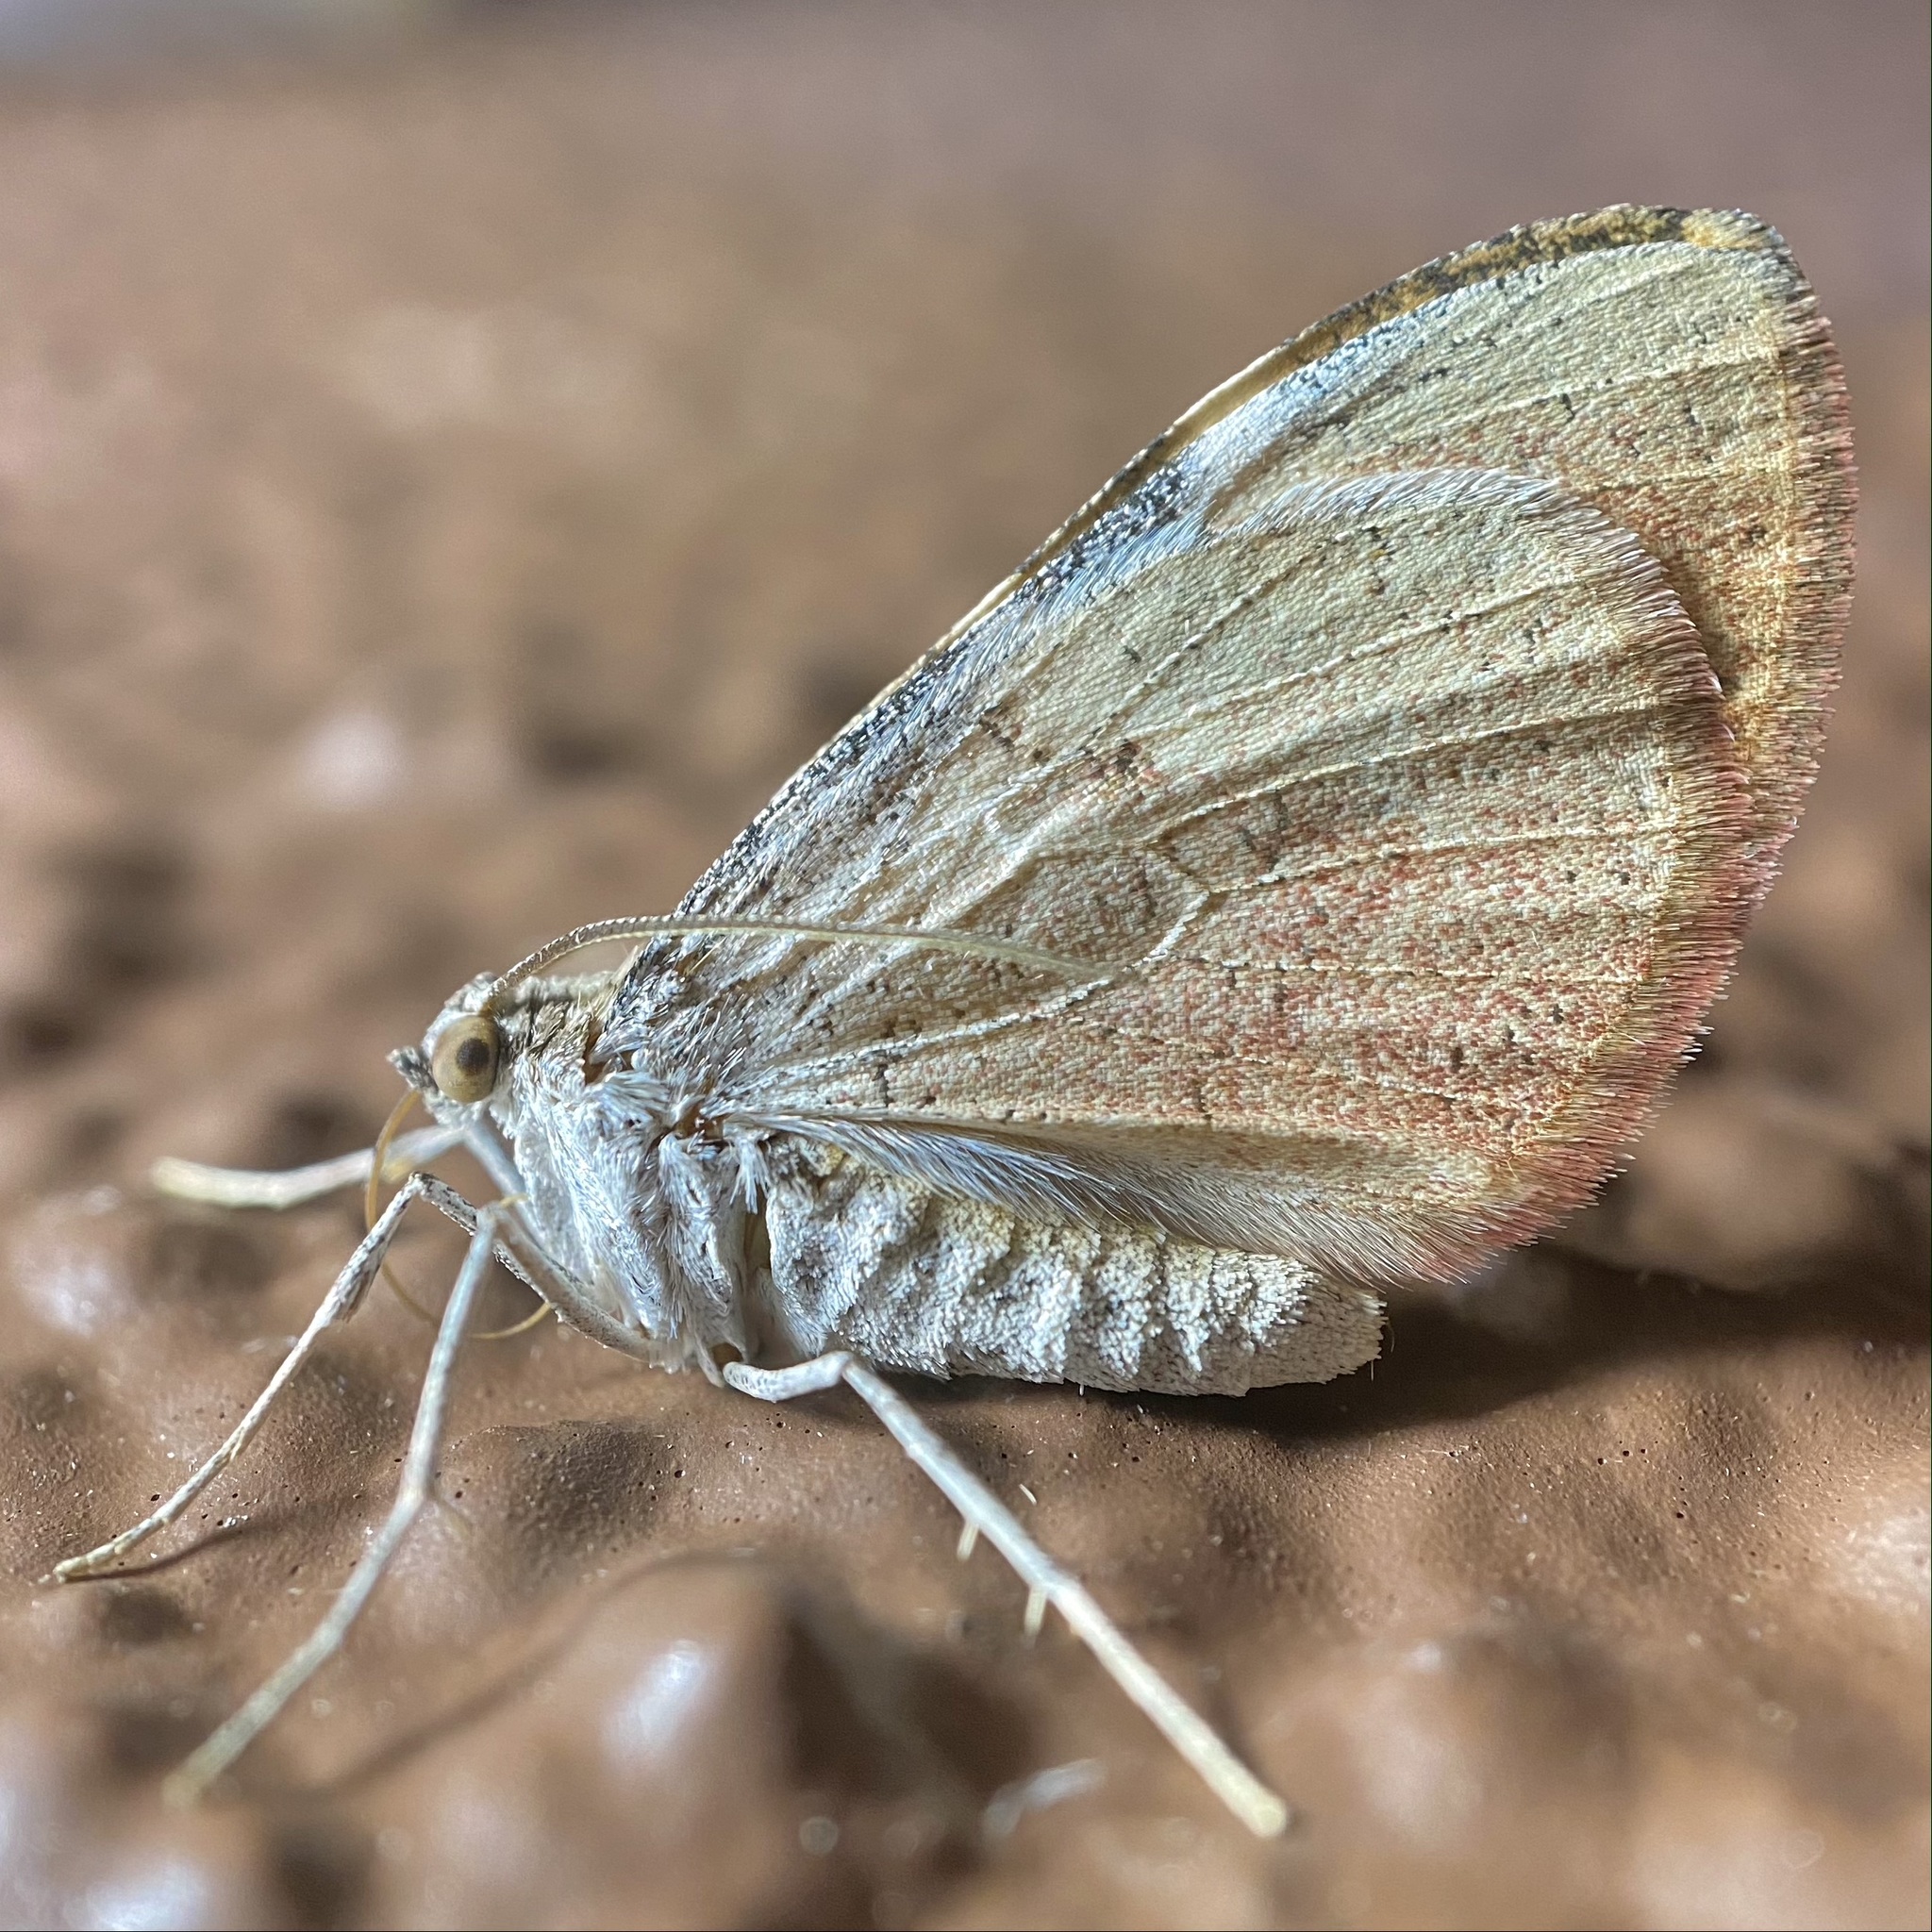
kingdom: Animalia
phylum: Arthropoda
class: Insecta
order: Lepidoptera
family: Geometridae
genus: Stamnodes
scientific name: Stamnodes seiferti
